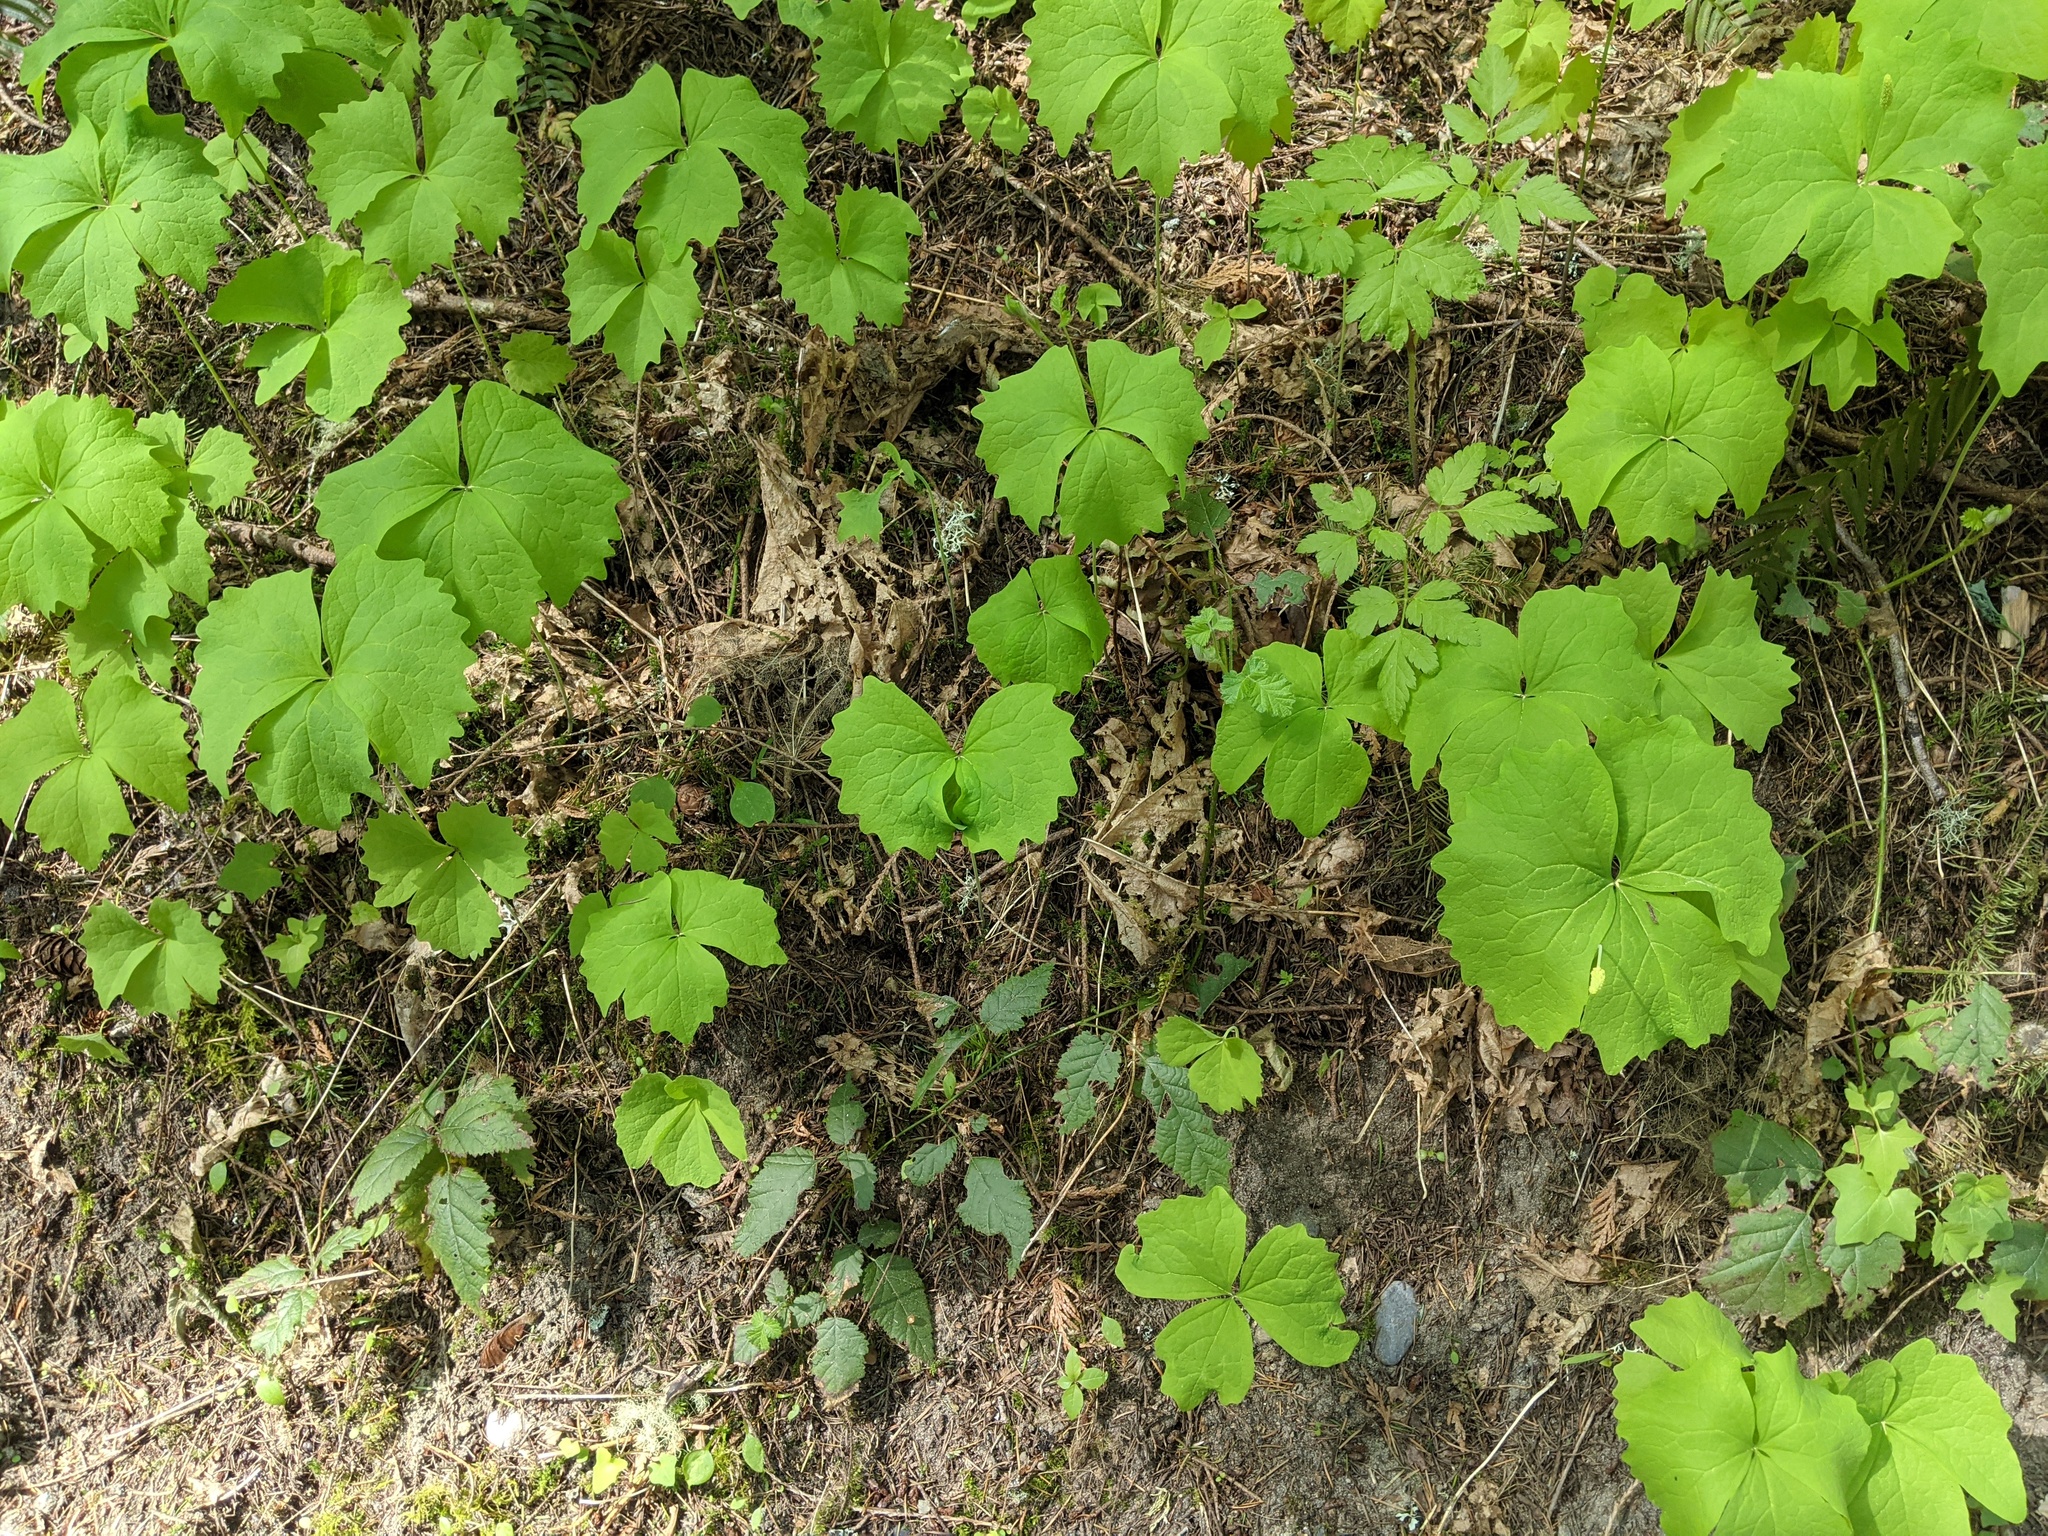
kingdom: Plantae
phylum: Tracheophyta
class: Magnoliopsida
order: Ranunculales
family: Berberidaceae
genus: Achlys
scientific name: Achlys triphylla
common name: Vanilla-leaf
